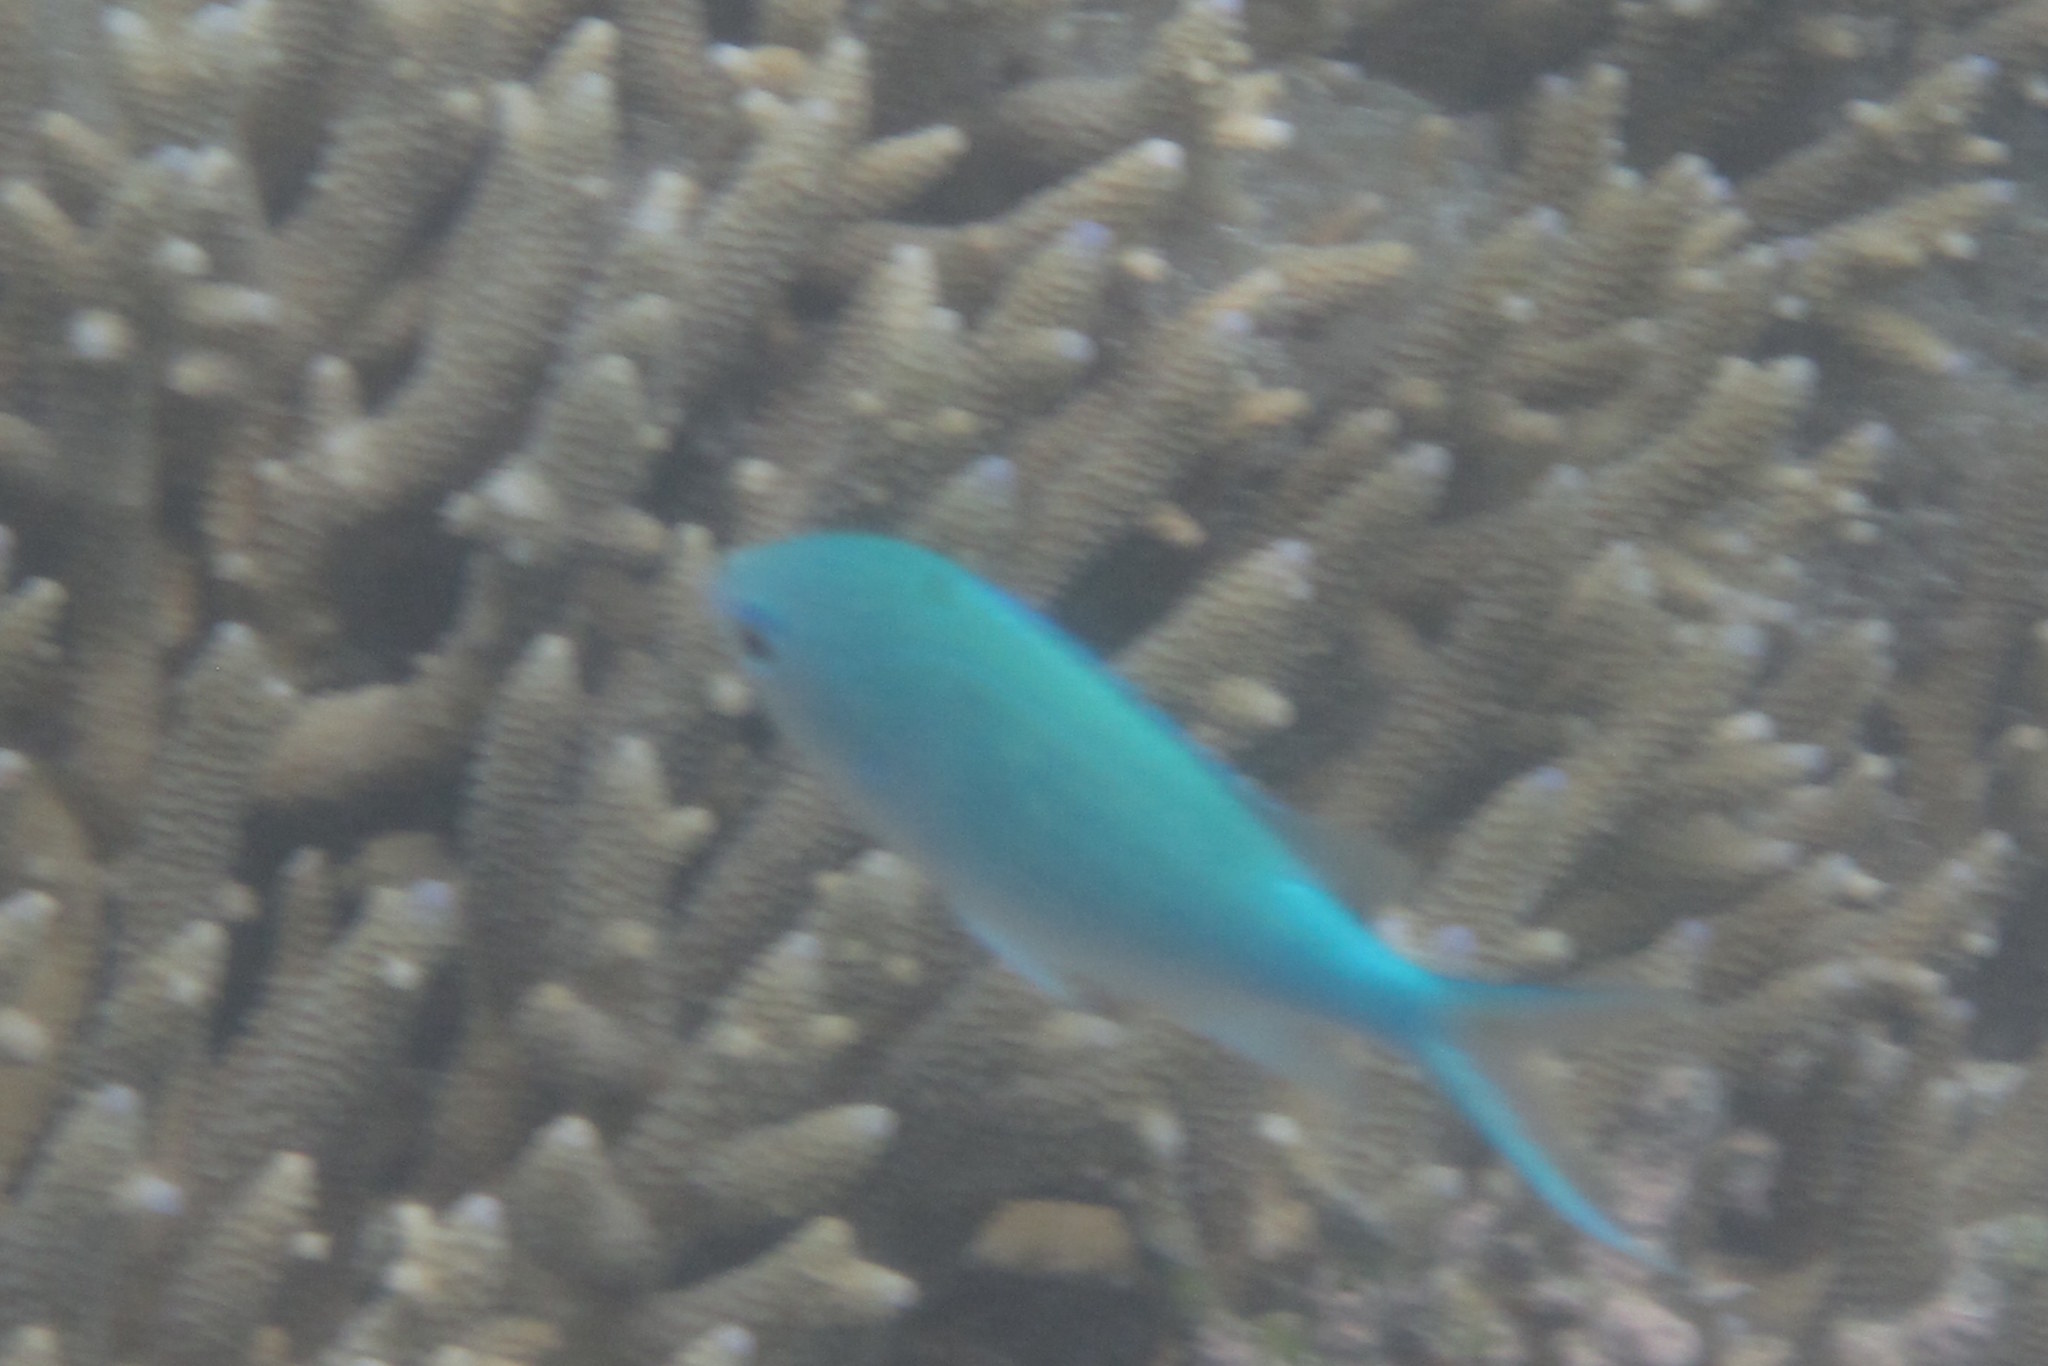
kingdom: Animalia
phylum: Chordata
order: Perciformes
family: Pomacentridae
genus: Chromis
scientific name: Chromis viridis
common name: Blue-green chromis
